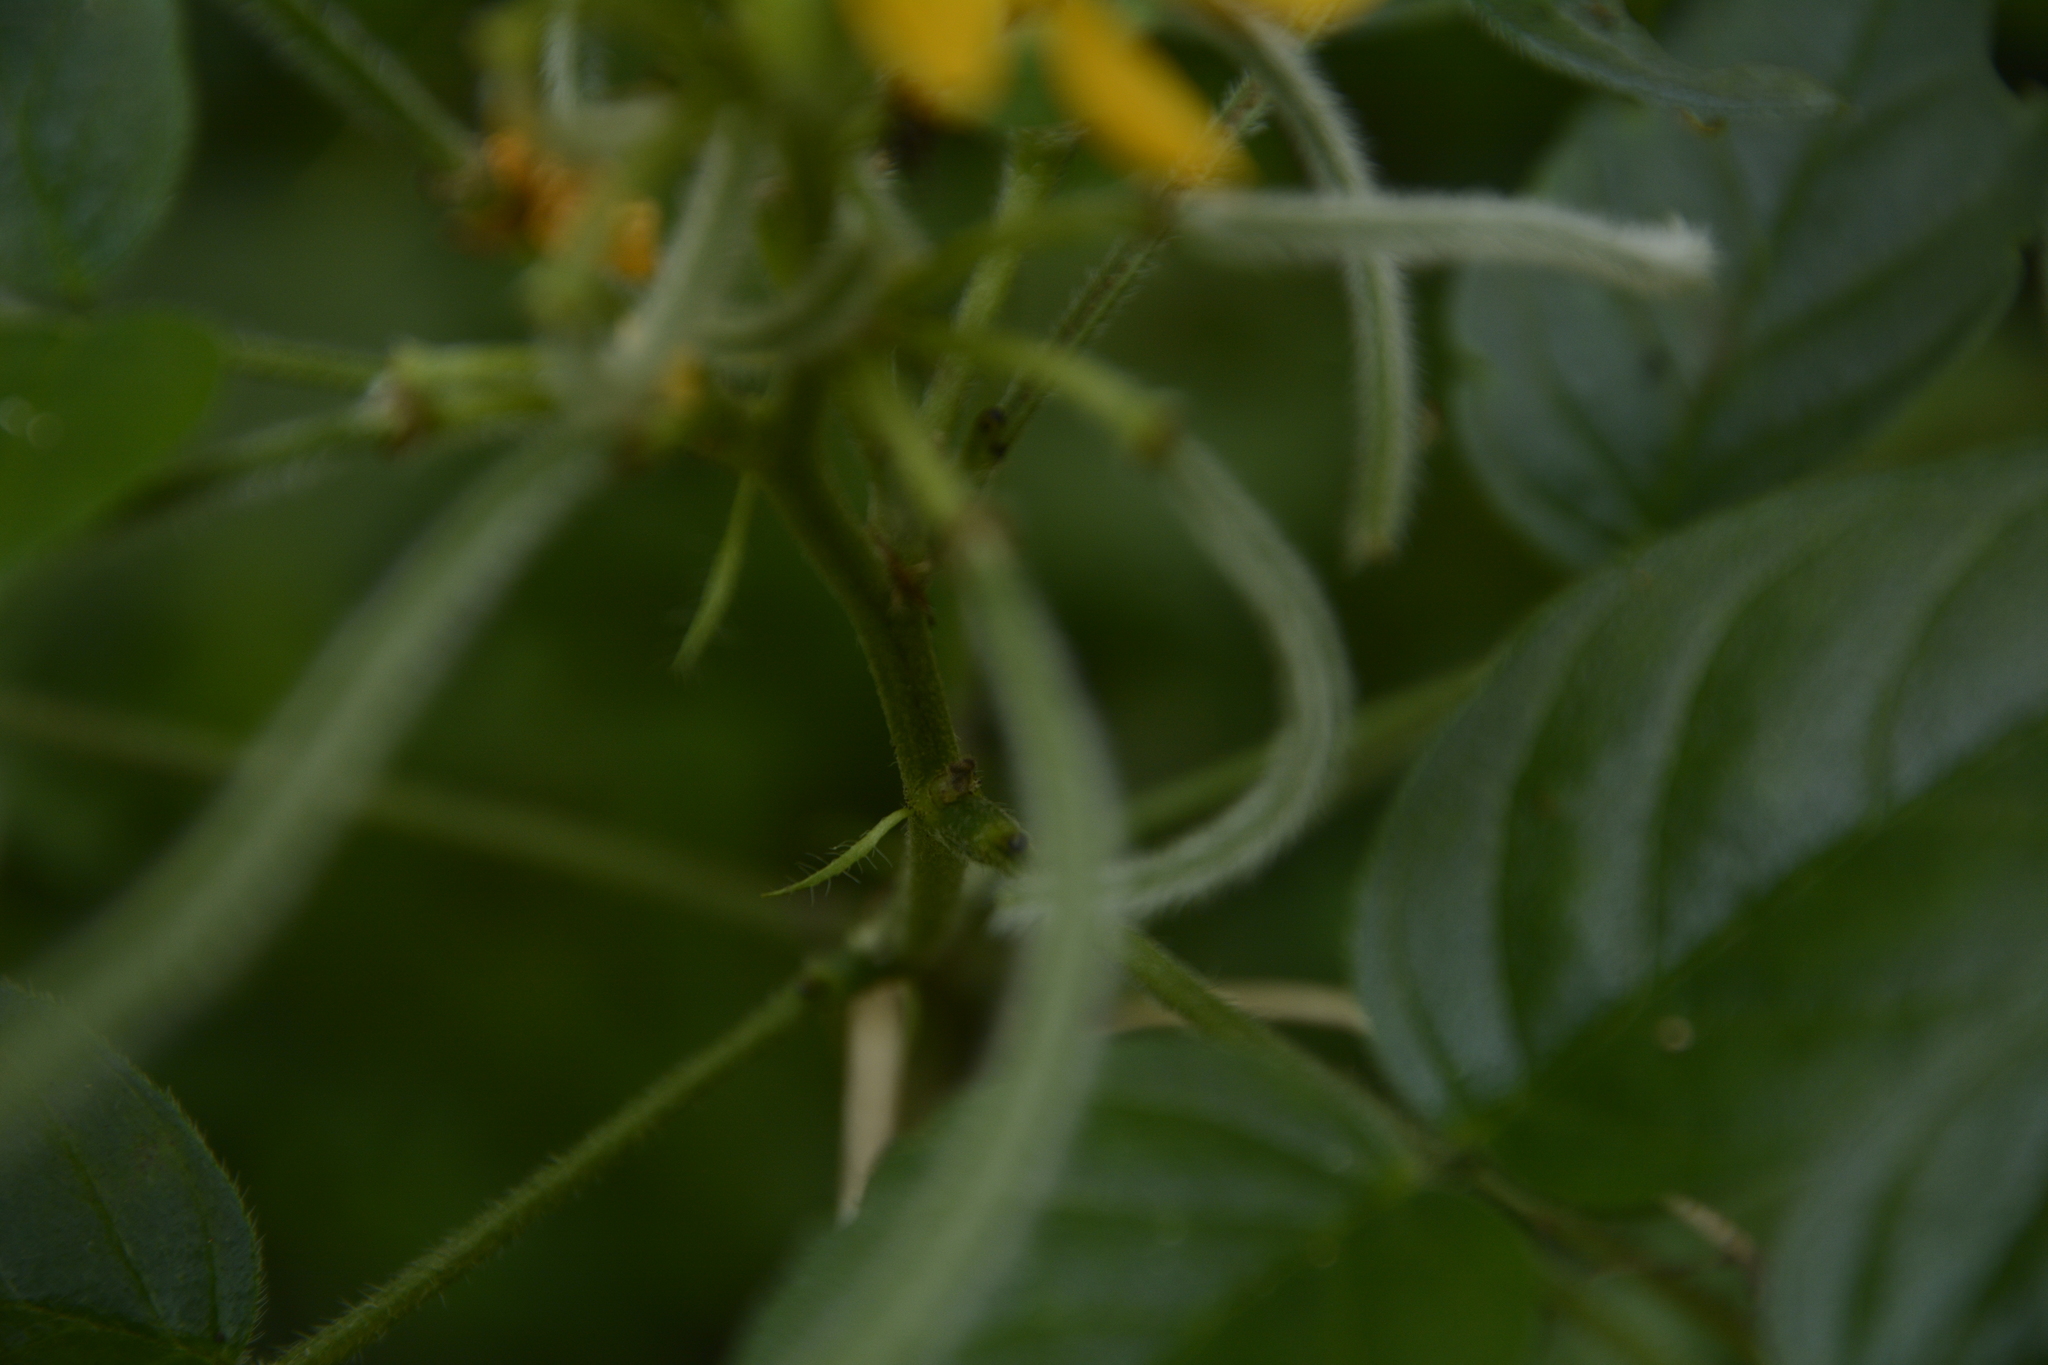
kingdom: Plantae
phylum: Tracheophyta
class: Magnoliopsida
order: Fabales
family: Fabaceae
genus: Senna
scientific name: Senna hirsuta
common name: Woolly senna
